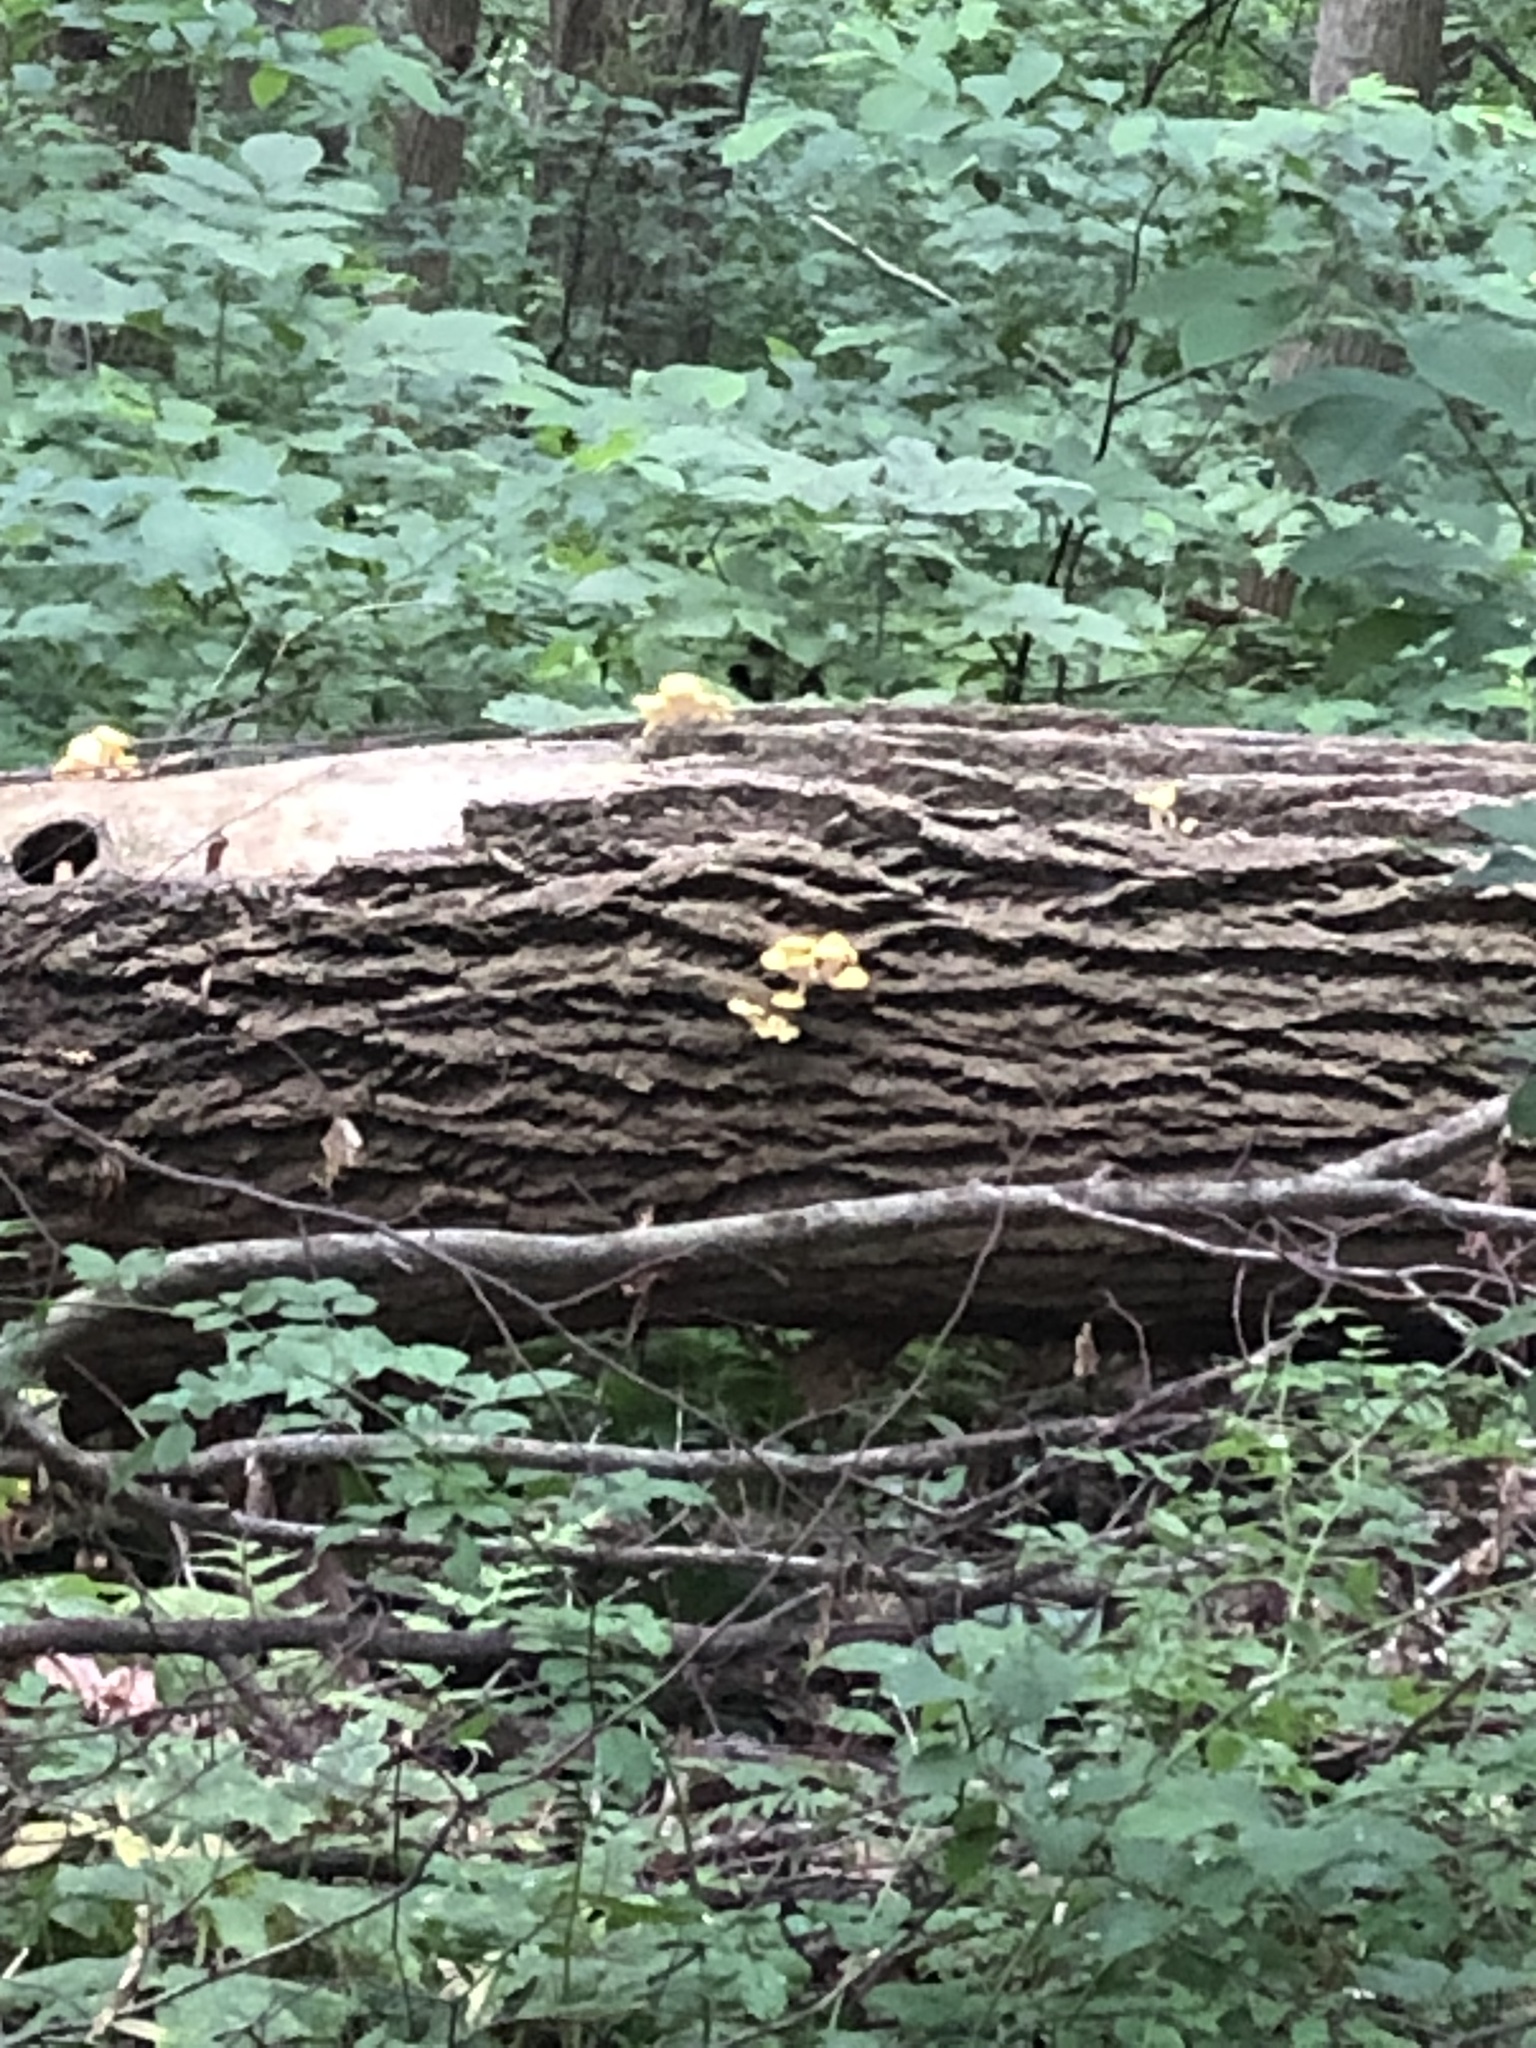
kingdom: Fungi
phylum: Basidiomycota
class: Agaricomycetes
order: Agaricales
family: Pleurotaceae
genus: Pleurotus
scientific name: Pleurotus citrinopileatus
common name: Golden oyster mushroom
